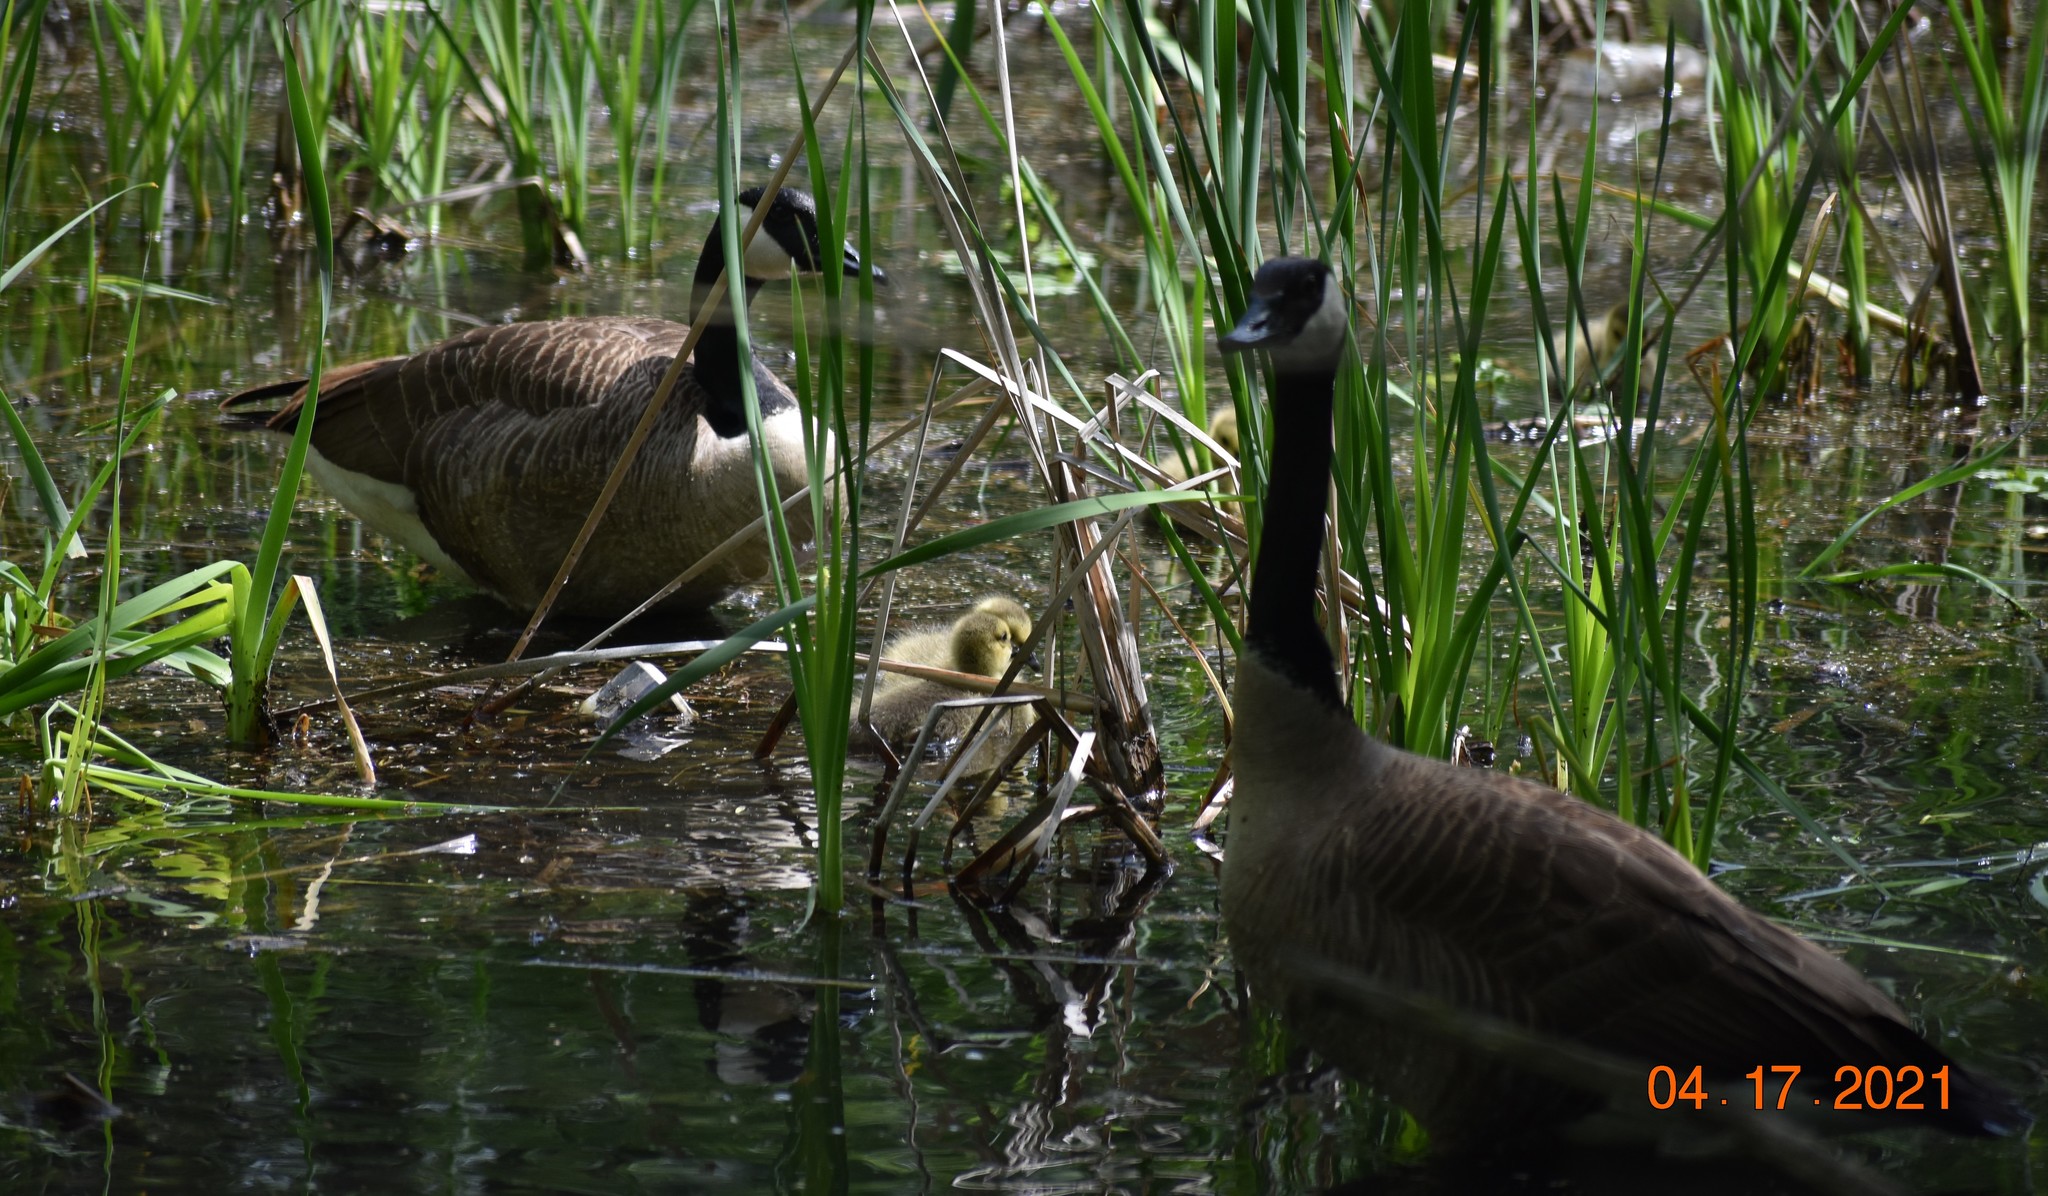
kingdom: Animalia
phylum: Chordata
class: Aves
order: Anseriformes
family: Anatidae
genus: Branta
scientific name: Branta canadensis
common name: Canada goose
